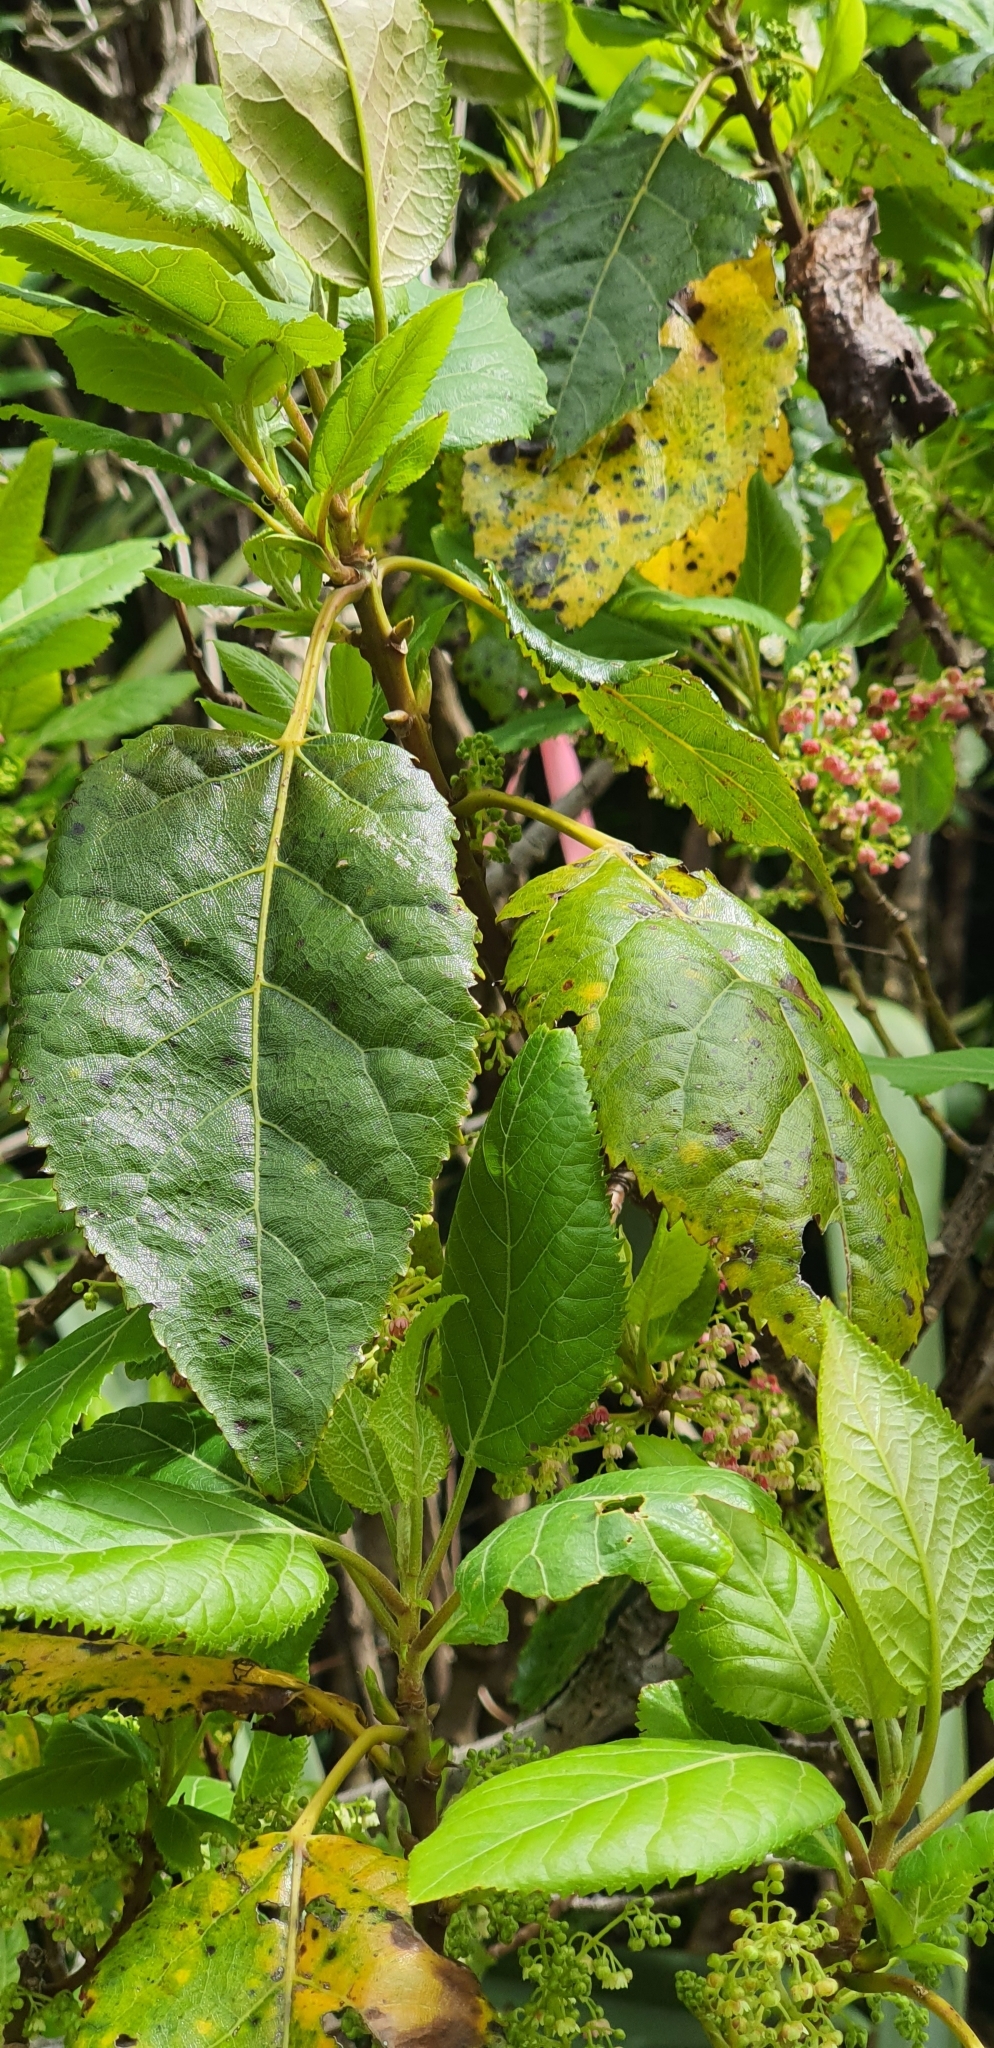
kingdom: Plantae
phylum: Tracheophyta
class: Magnoliopsida
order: Oxalidales
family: Elaeocarpaceae
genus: Aristotelia
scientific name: Aristotelia serrata
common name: New zealand wineberry
